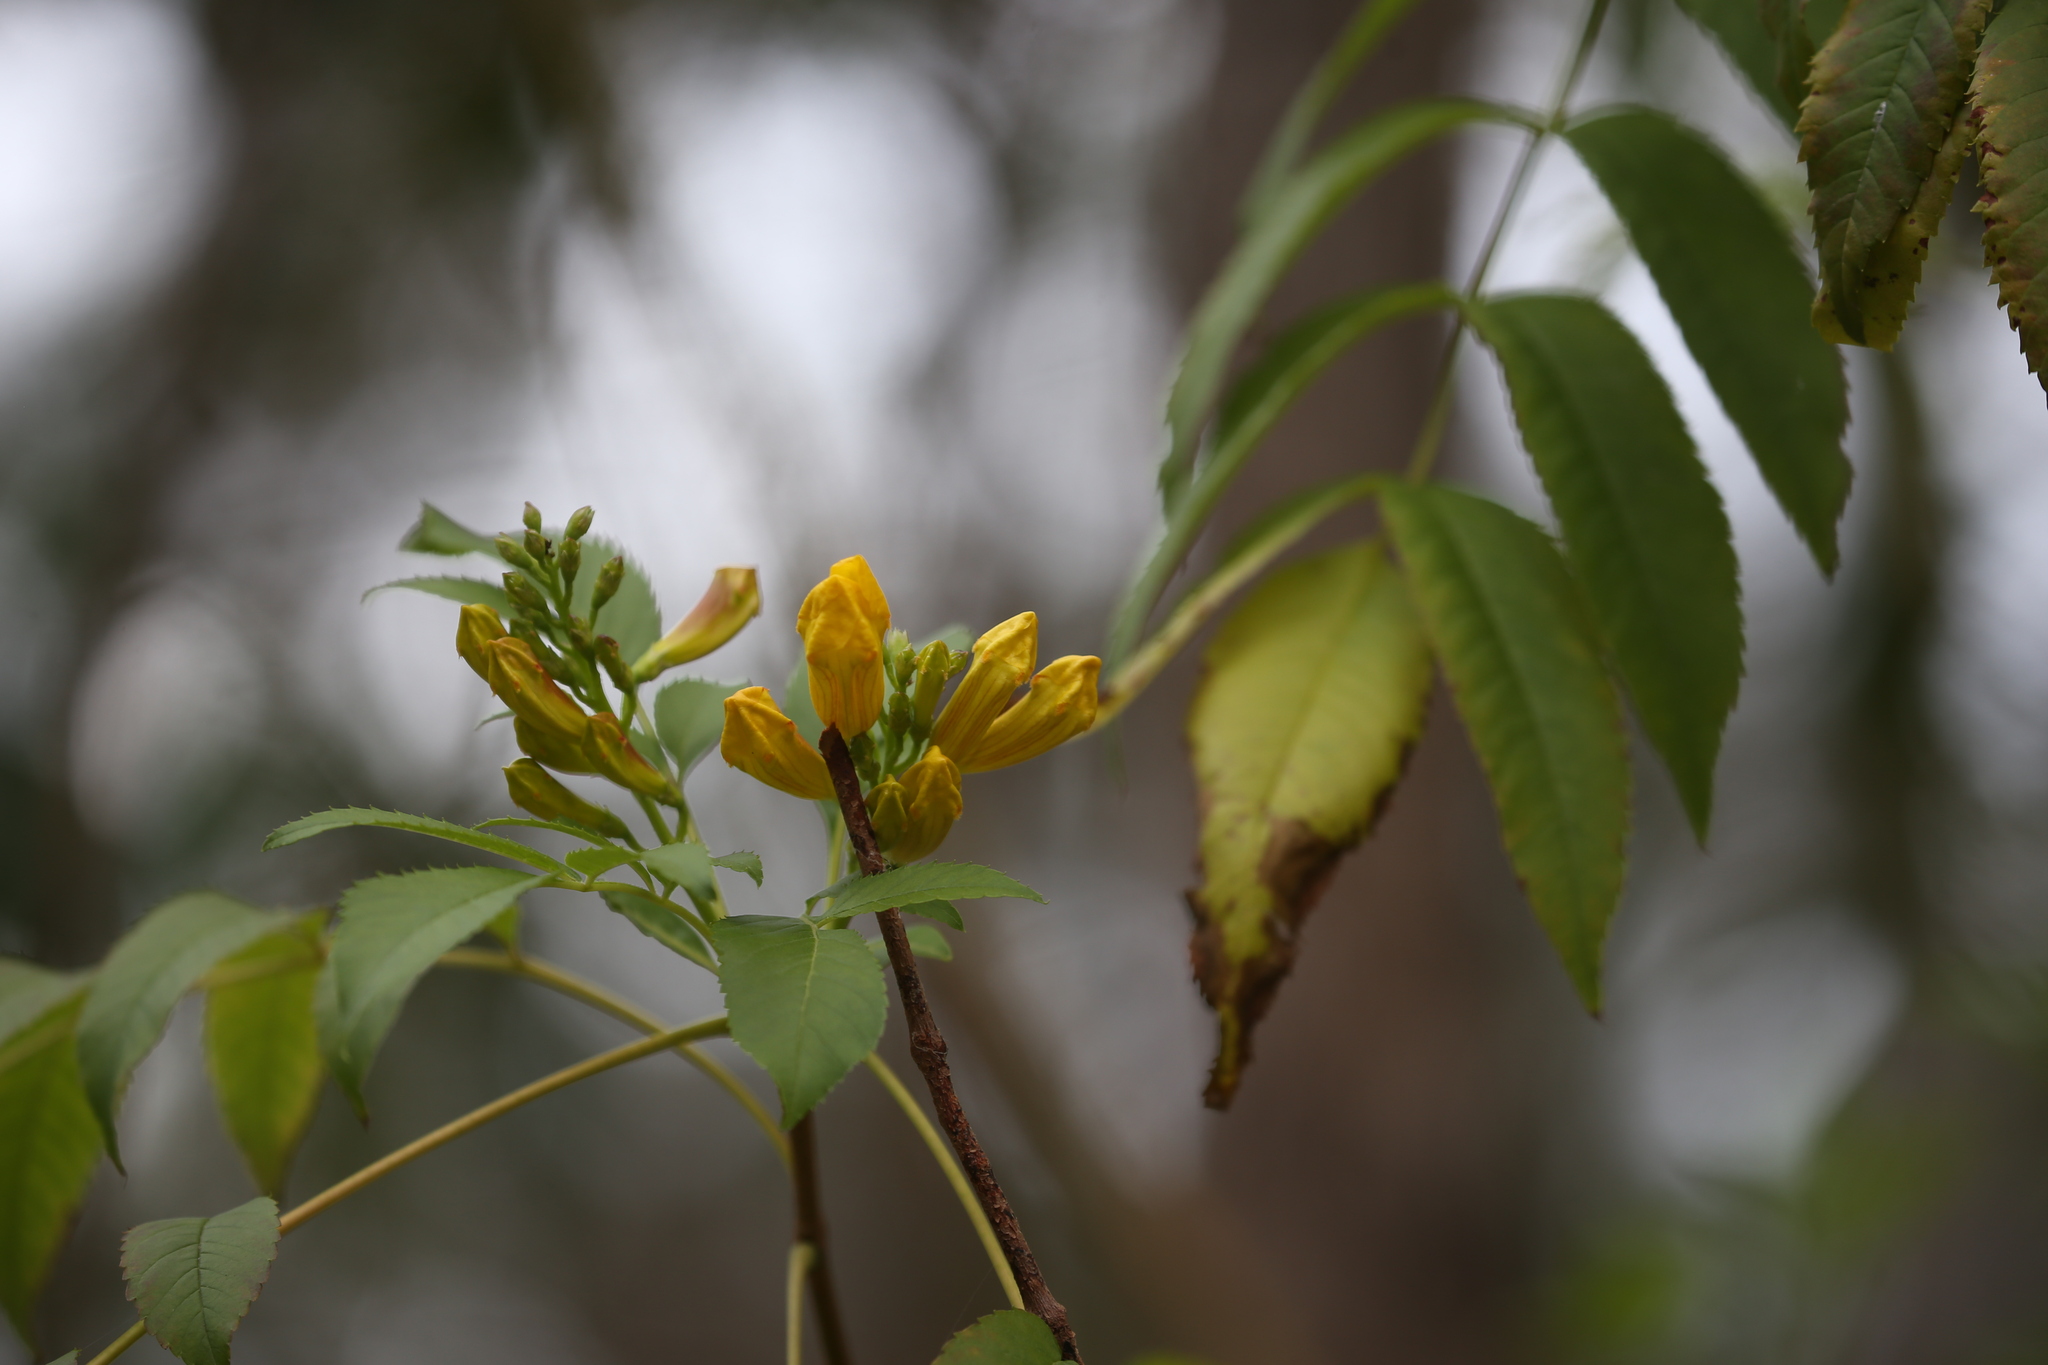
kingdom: Plantae
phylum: Tracheophyta
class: Magnoliopsida
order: Lamiales
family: Bignoniaceae
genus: Tecoma
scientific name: Tecoma stans
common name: Yellow trumpetbush
